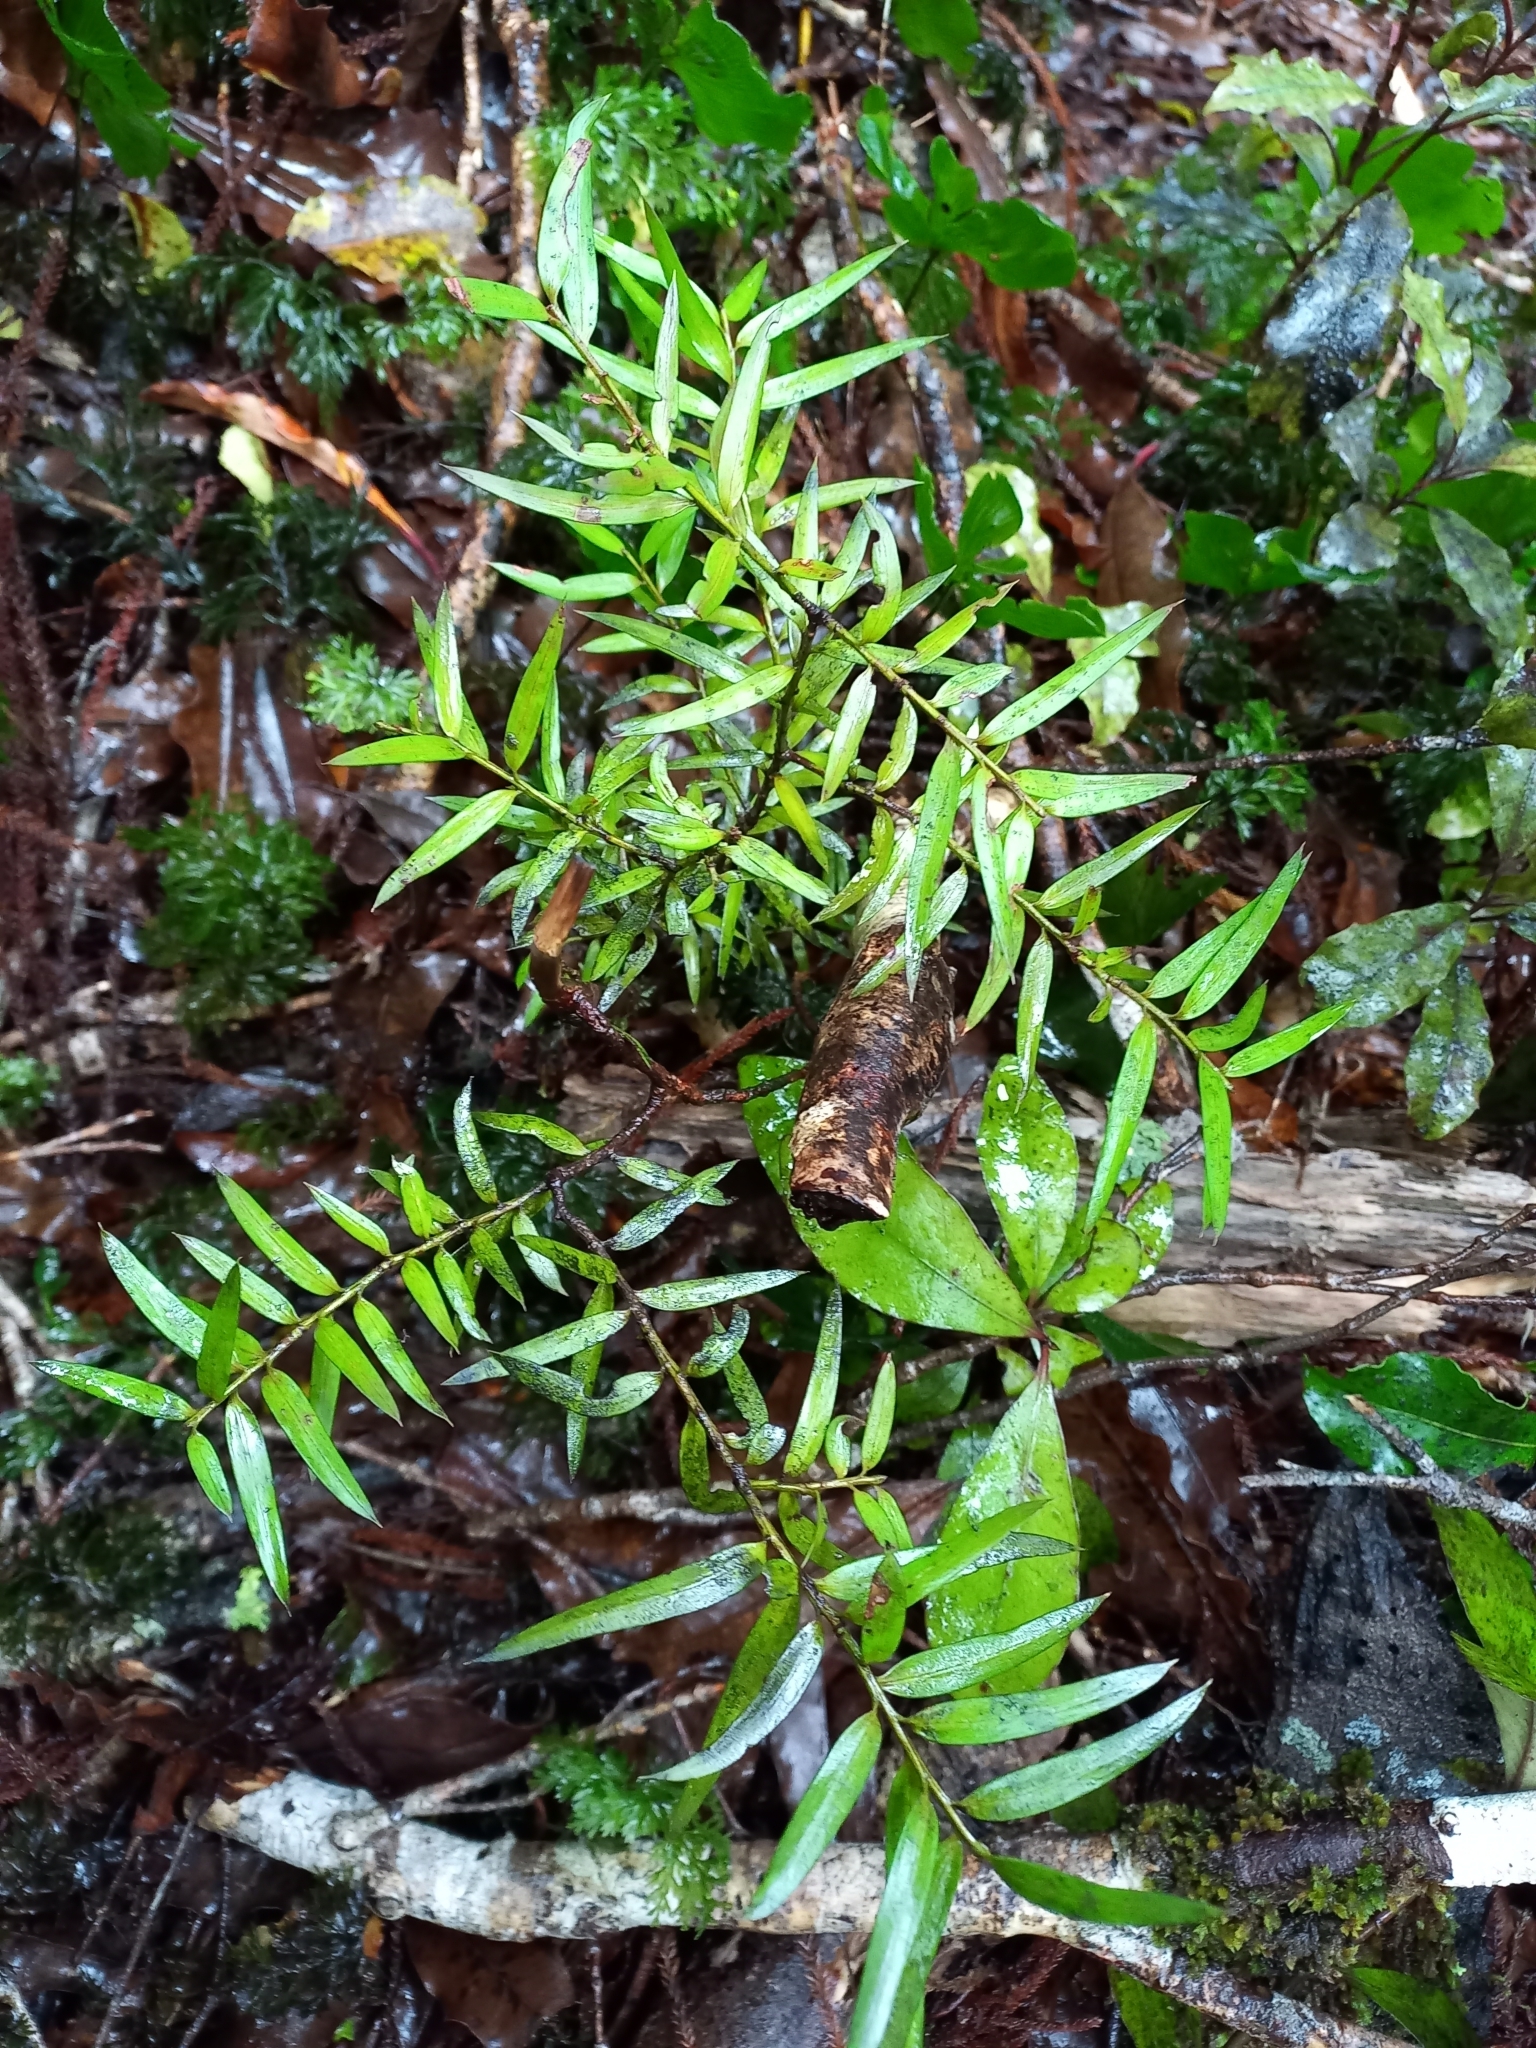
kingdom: Plantae
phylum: Tracheophyta
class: Pinopsida
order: Pinales
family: Podocarpaceae
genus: Podocarpus
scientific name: Podocarpus laetus
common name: Hall's totara
